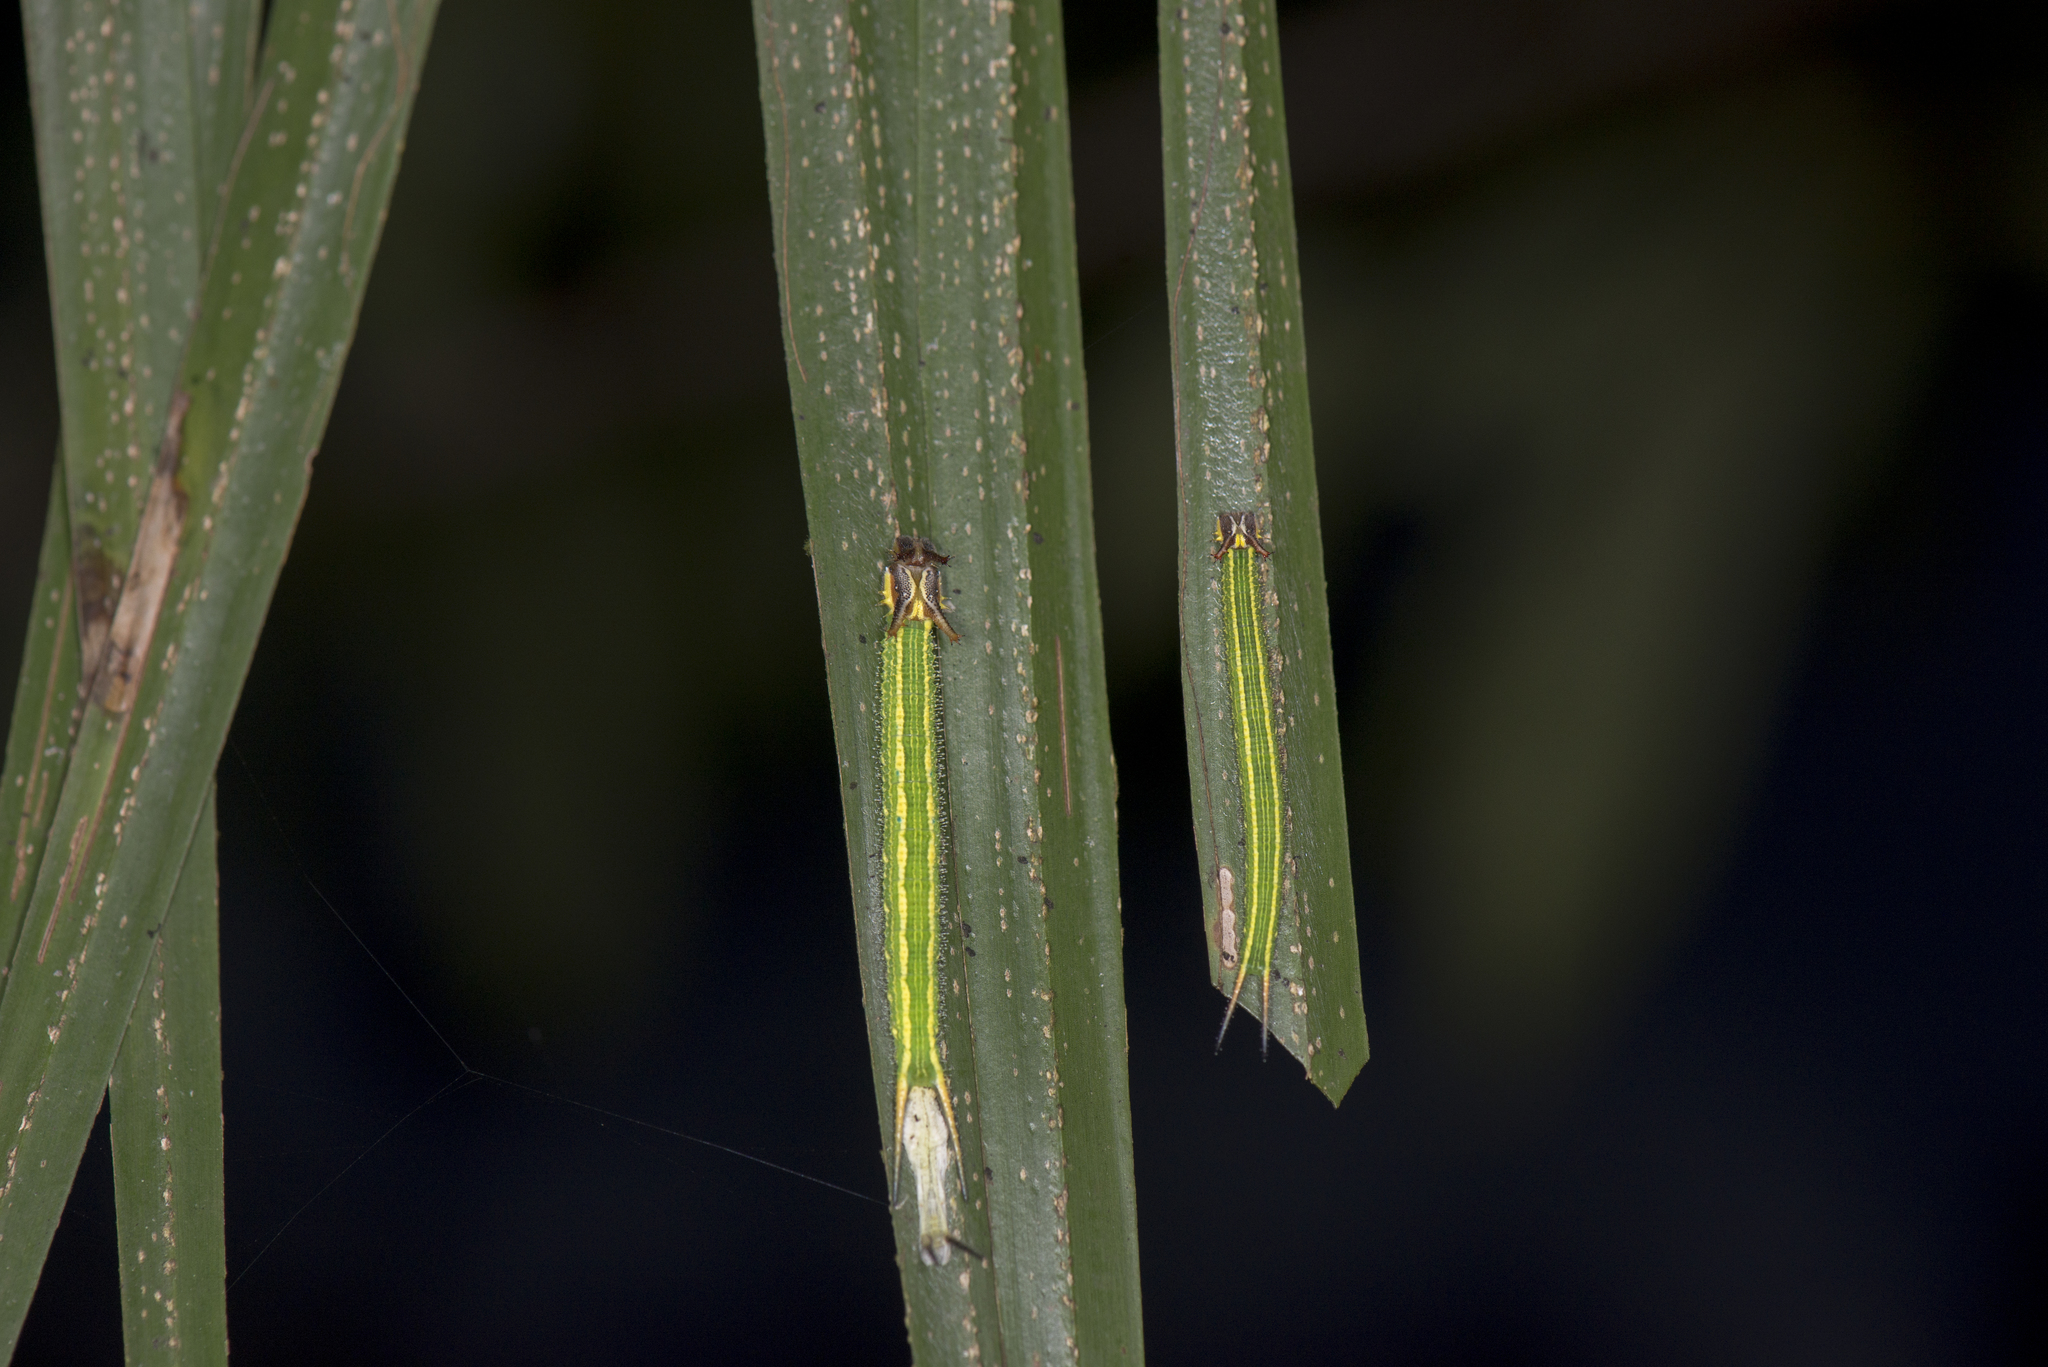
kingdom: Animalia
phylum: Arthropoda
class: Insecta
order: Lepidoptera
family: Nymphalidae
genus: Elymnias
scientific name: Elymnias hypermnestra
